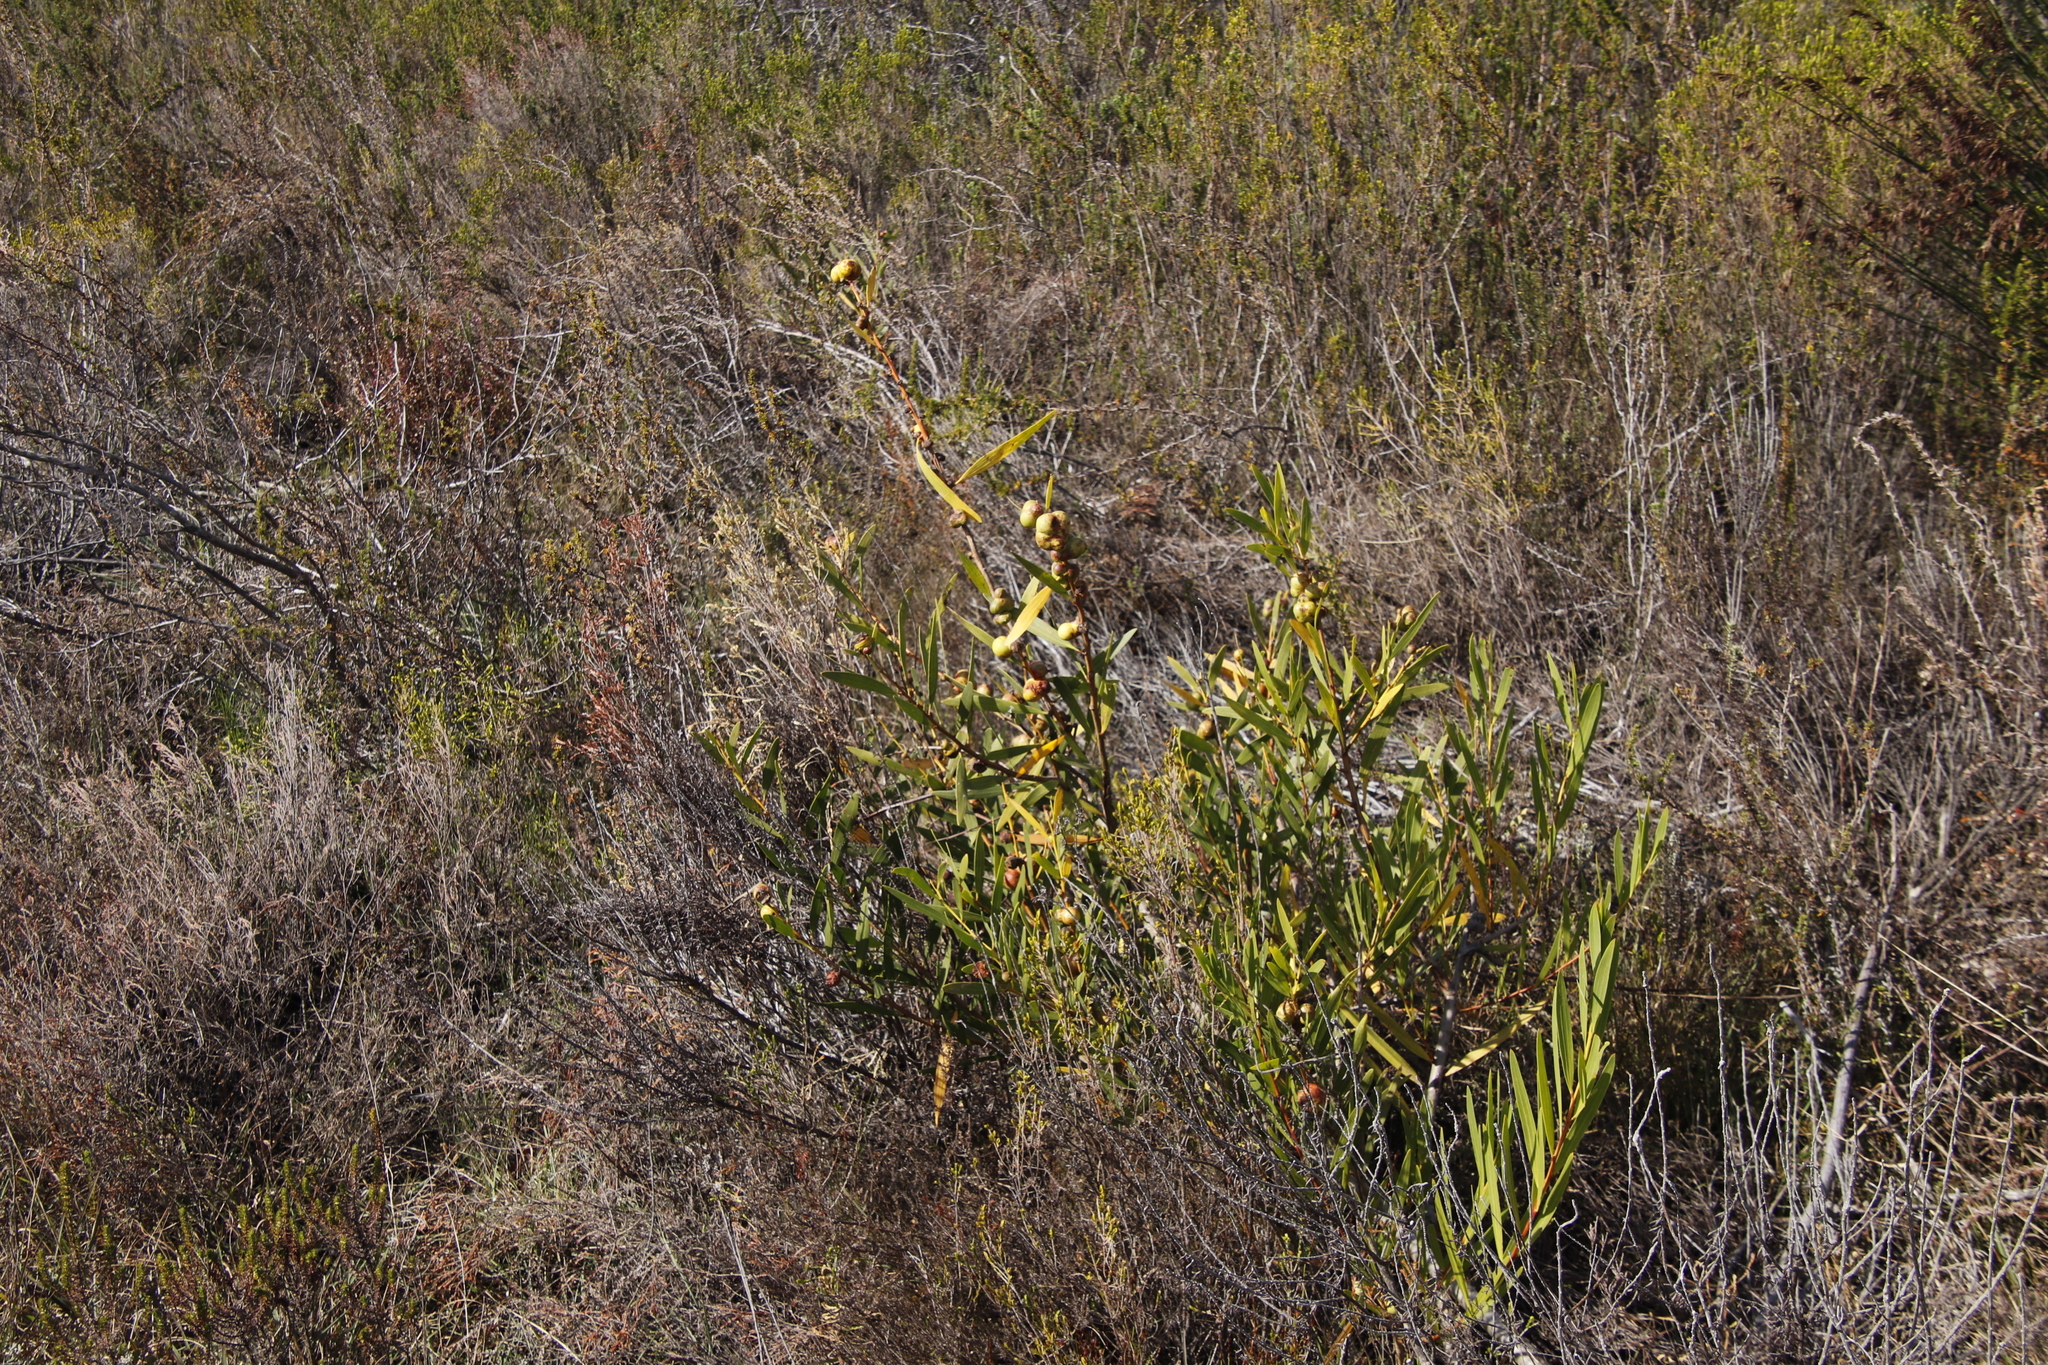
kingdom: Plantae
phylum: Tracheophyta
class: Magnoliopsida
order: Fabales
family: Fabaceae
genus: Acacia
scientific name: Acacia longifolia
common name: Sydney golden wattle
